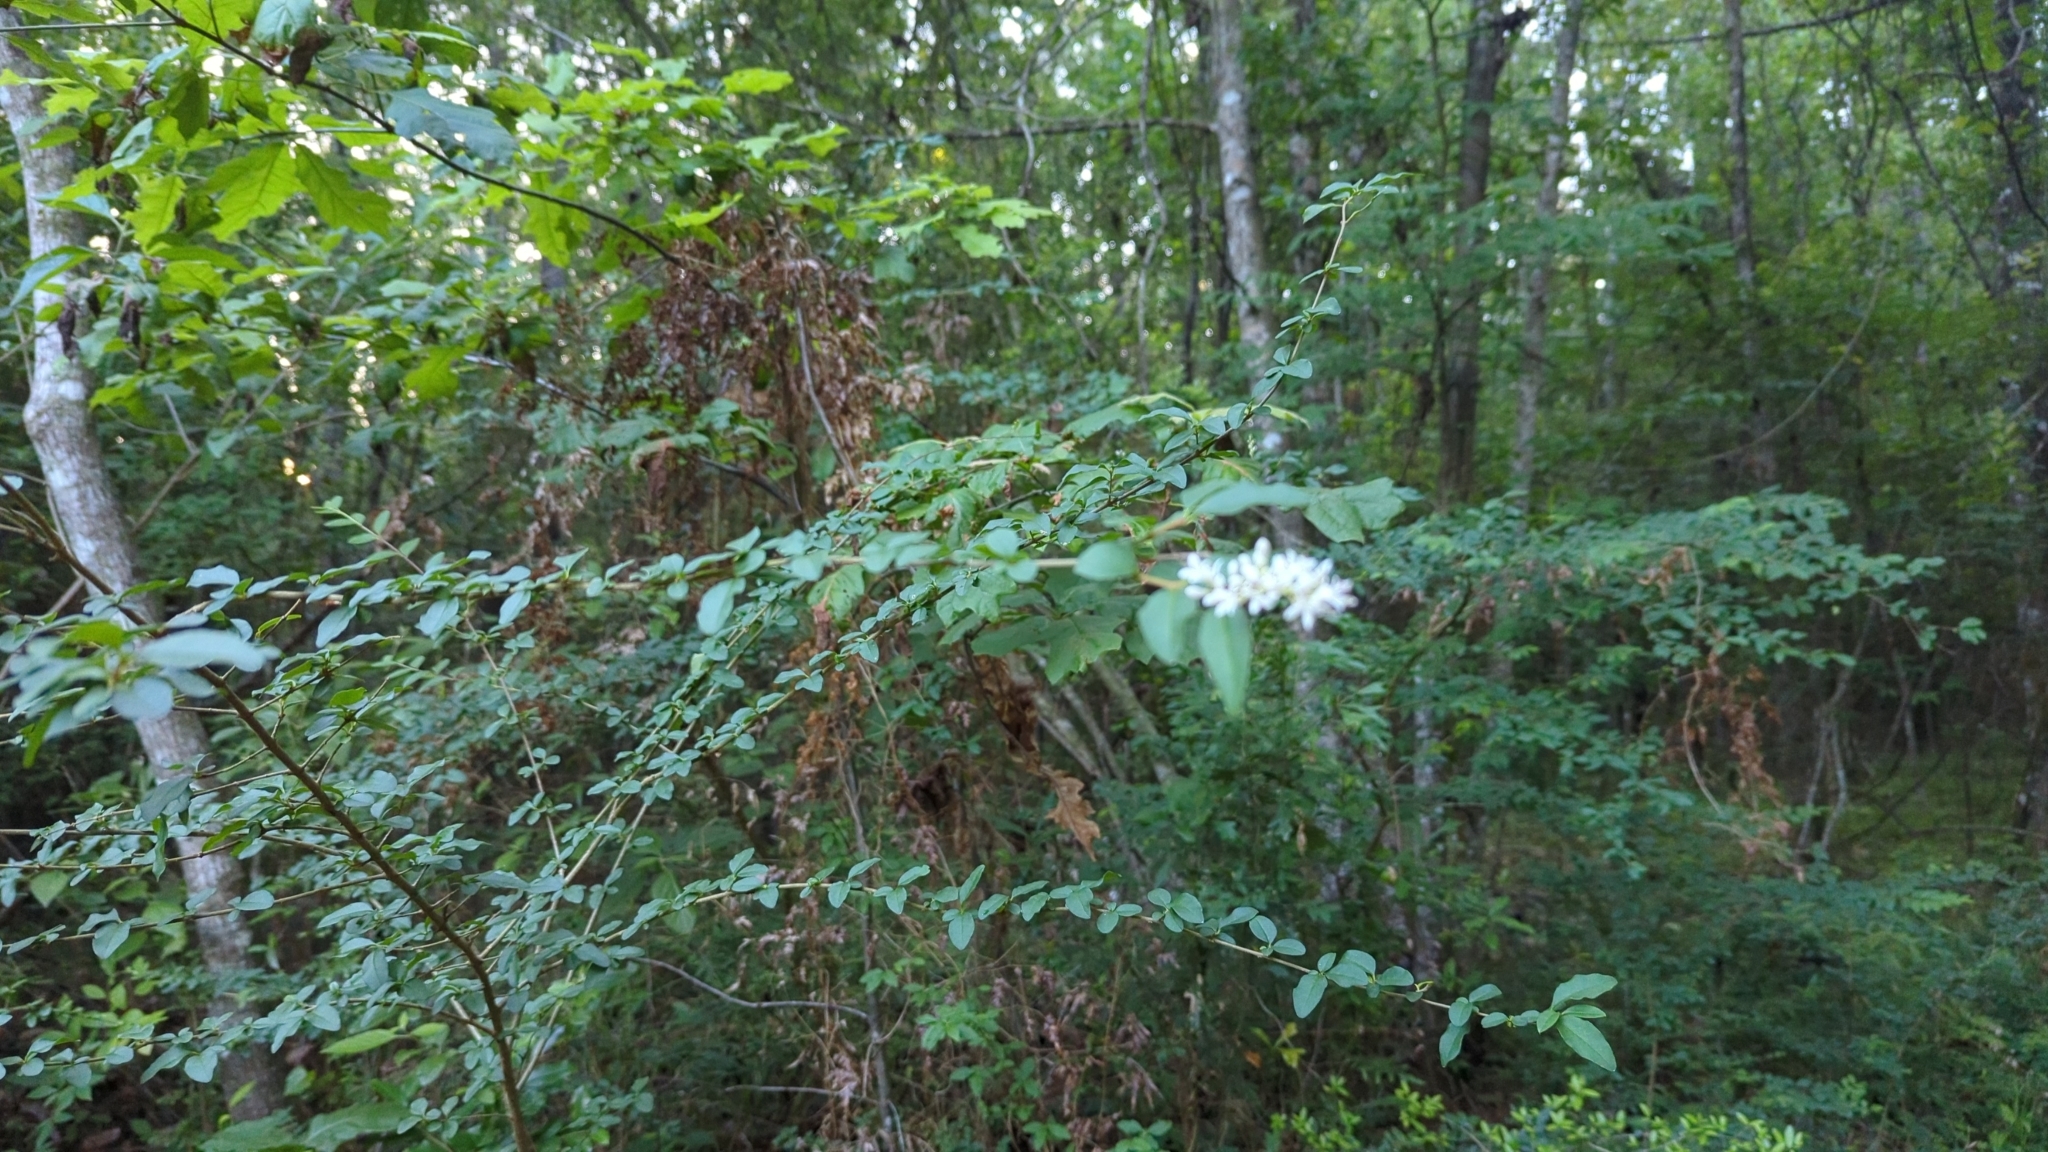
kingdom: Plantae
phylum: Tracheophyta
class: Magnoliopsida
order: Lamiales
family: Oleaceae
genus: Ligustrum
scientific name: Ligustrum sinense
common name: Chinese privet
